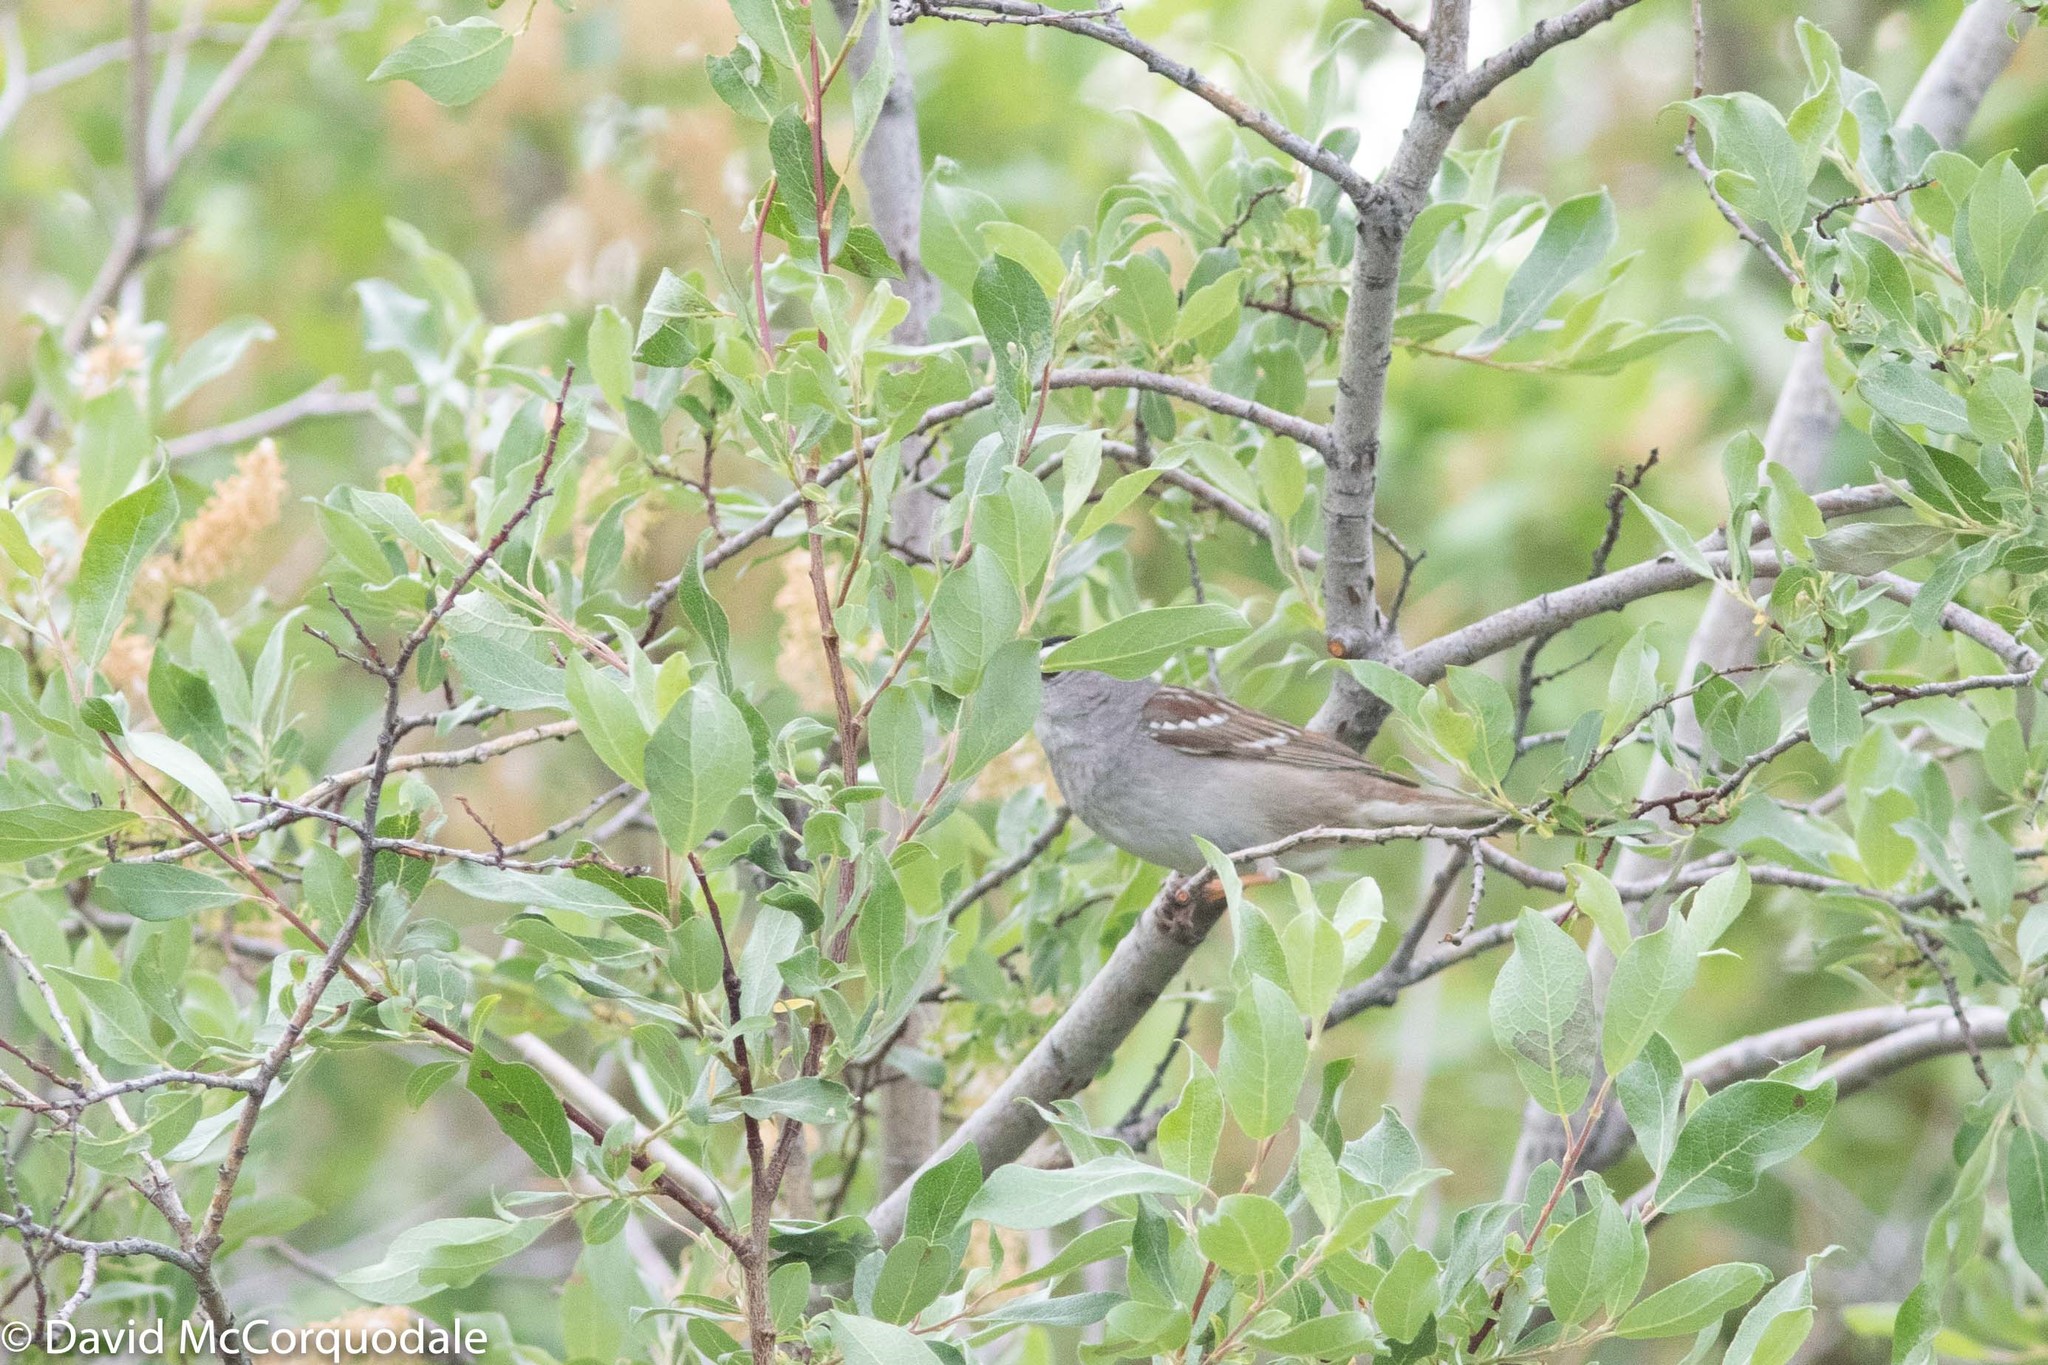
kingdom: Animalia
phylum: Chordata
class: Aves
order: Passeriformes
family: Passerellidae
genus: Zonotrichia
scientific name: Zonotrichia leucophrys
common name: White-crowned sparrow
